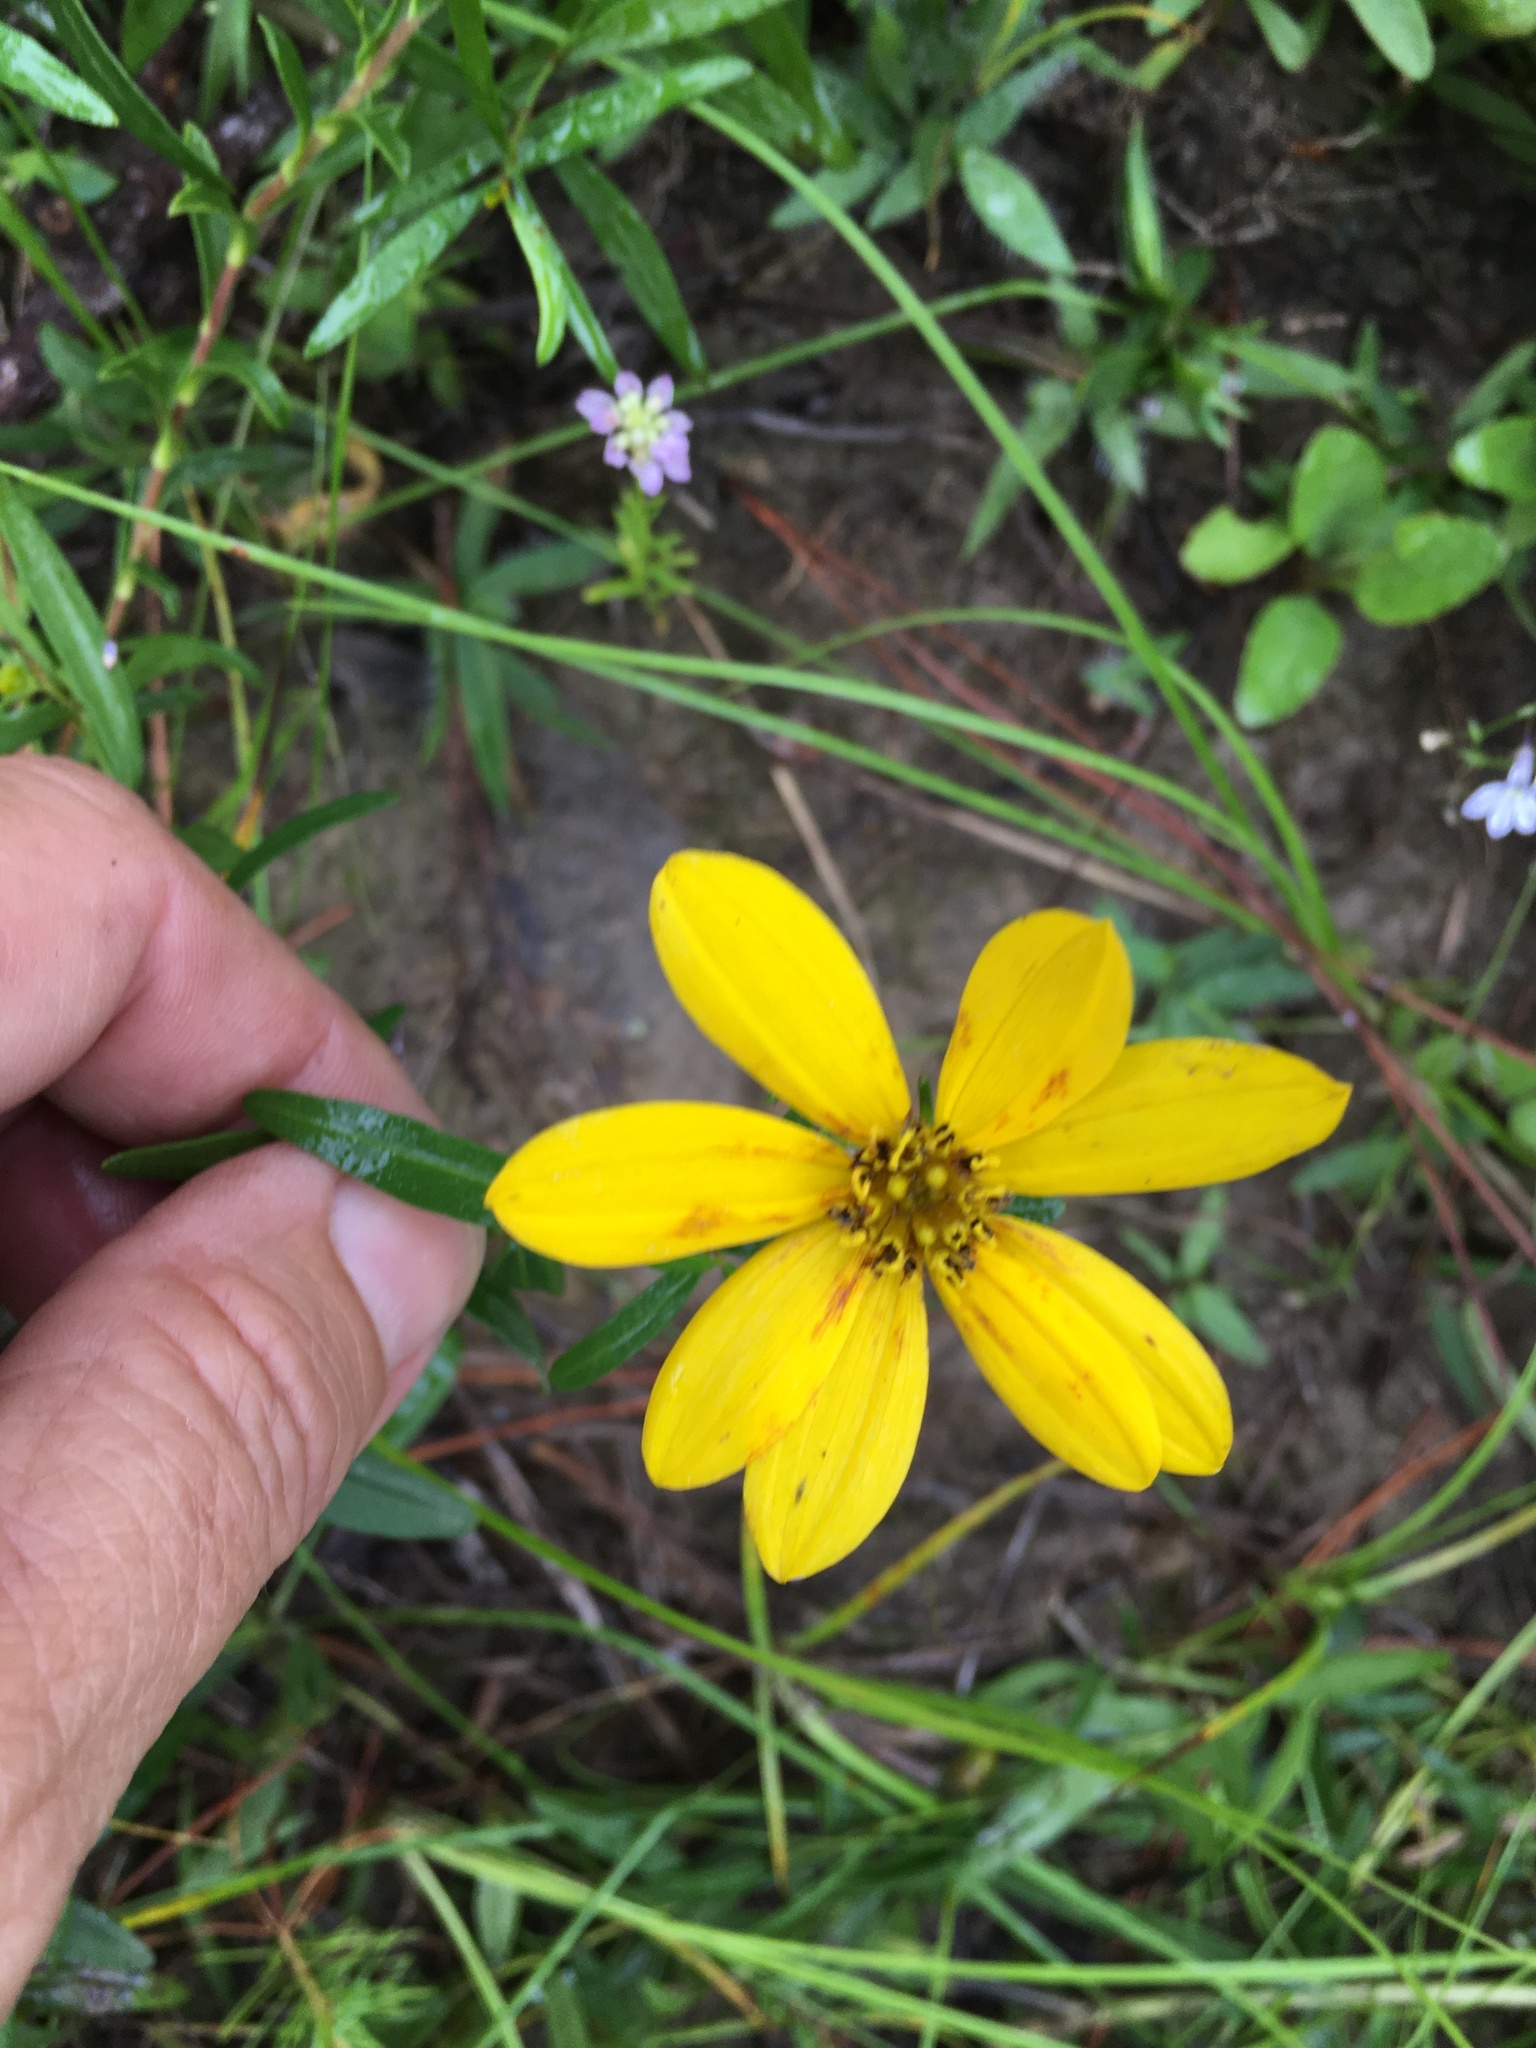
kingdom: Plantae
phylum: Tracheophyta
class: Magnoliopsida
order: Asterales
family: Asteraceae
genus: Coreopsis
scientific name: Coreopsis major
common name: Forest tickseed
